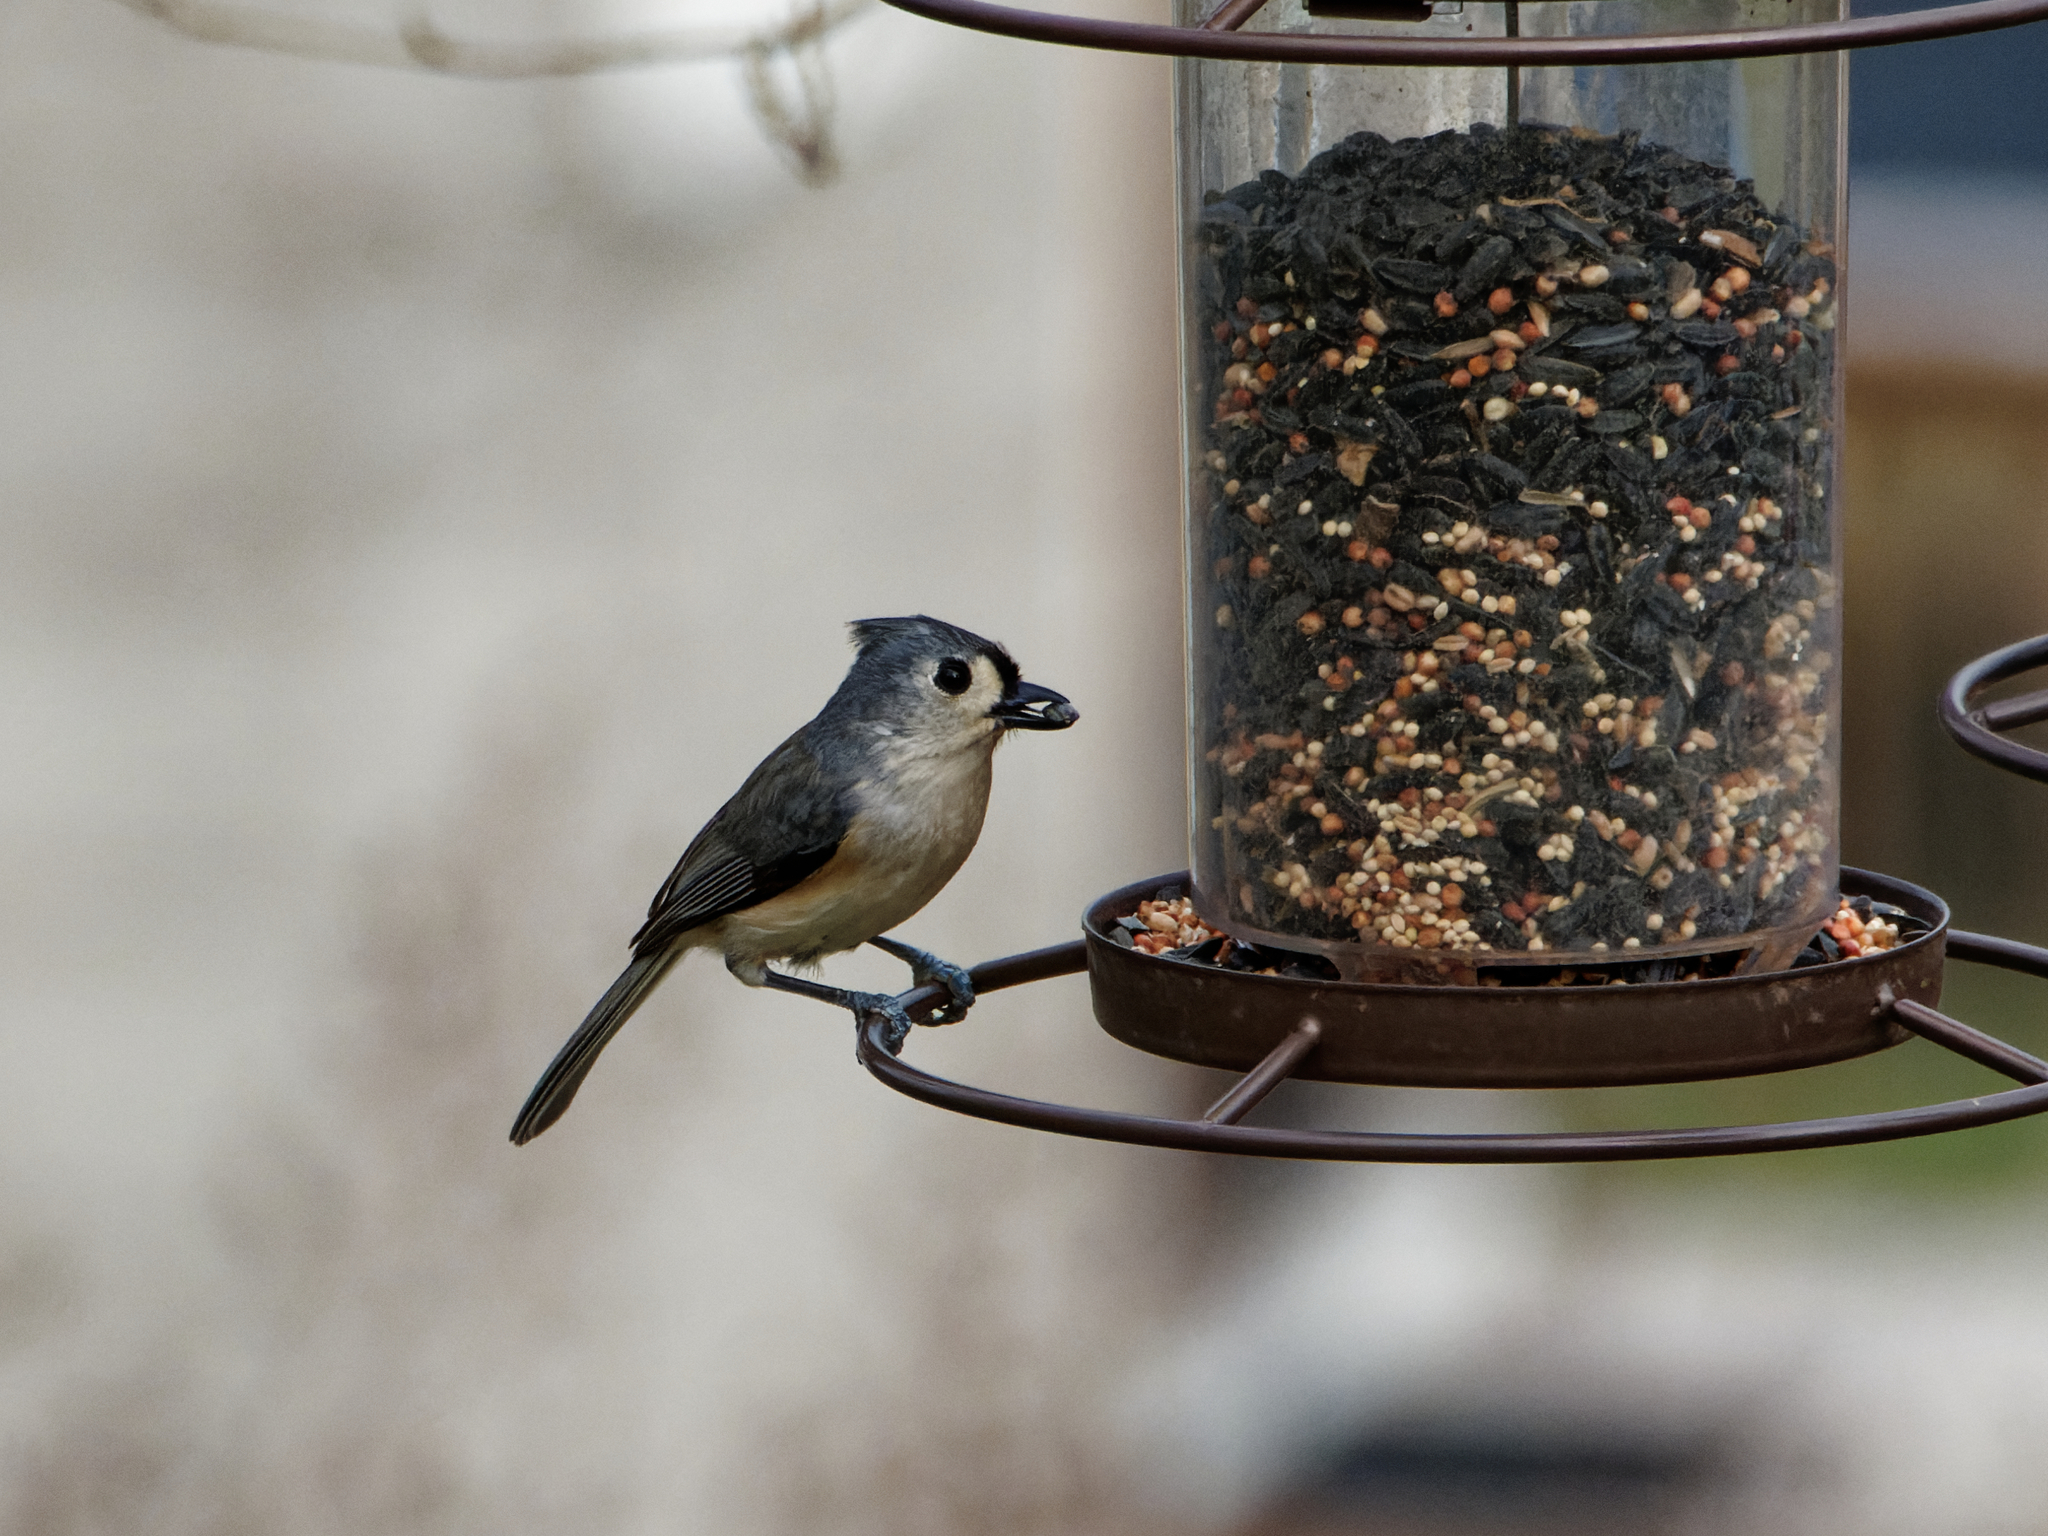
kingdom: Animalia
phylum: Chordata
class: Aves
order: Passeriformes
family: Paridae
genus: Baeolophus
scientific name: Baeolophus bicolor
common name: Tufted titmouse
